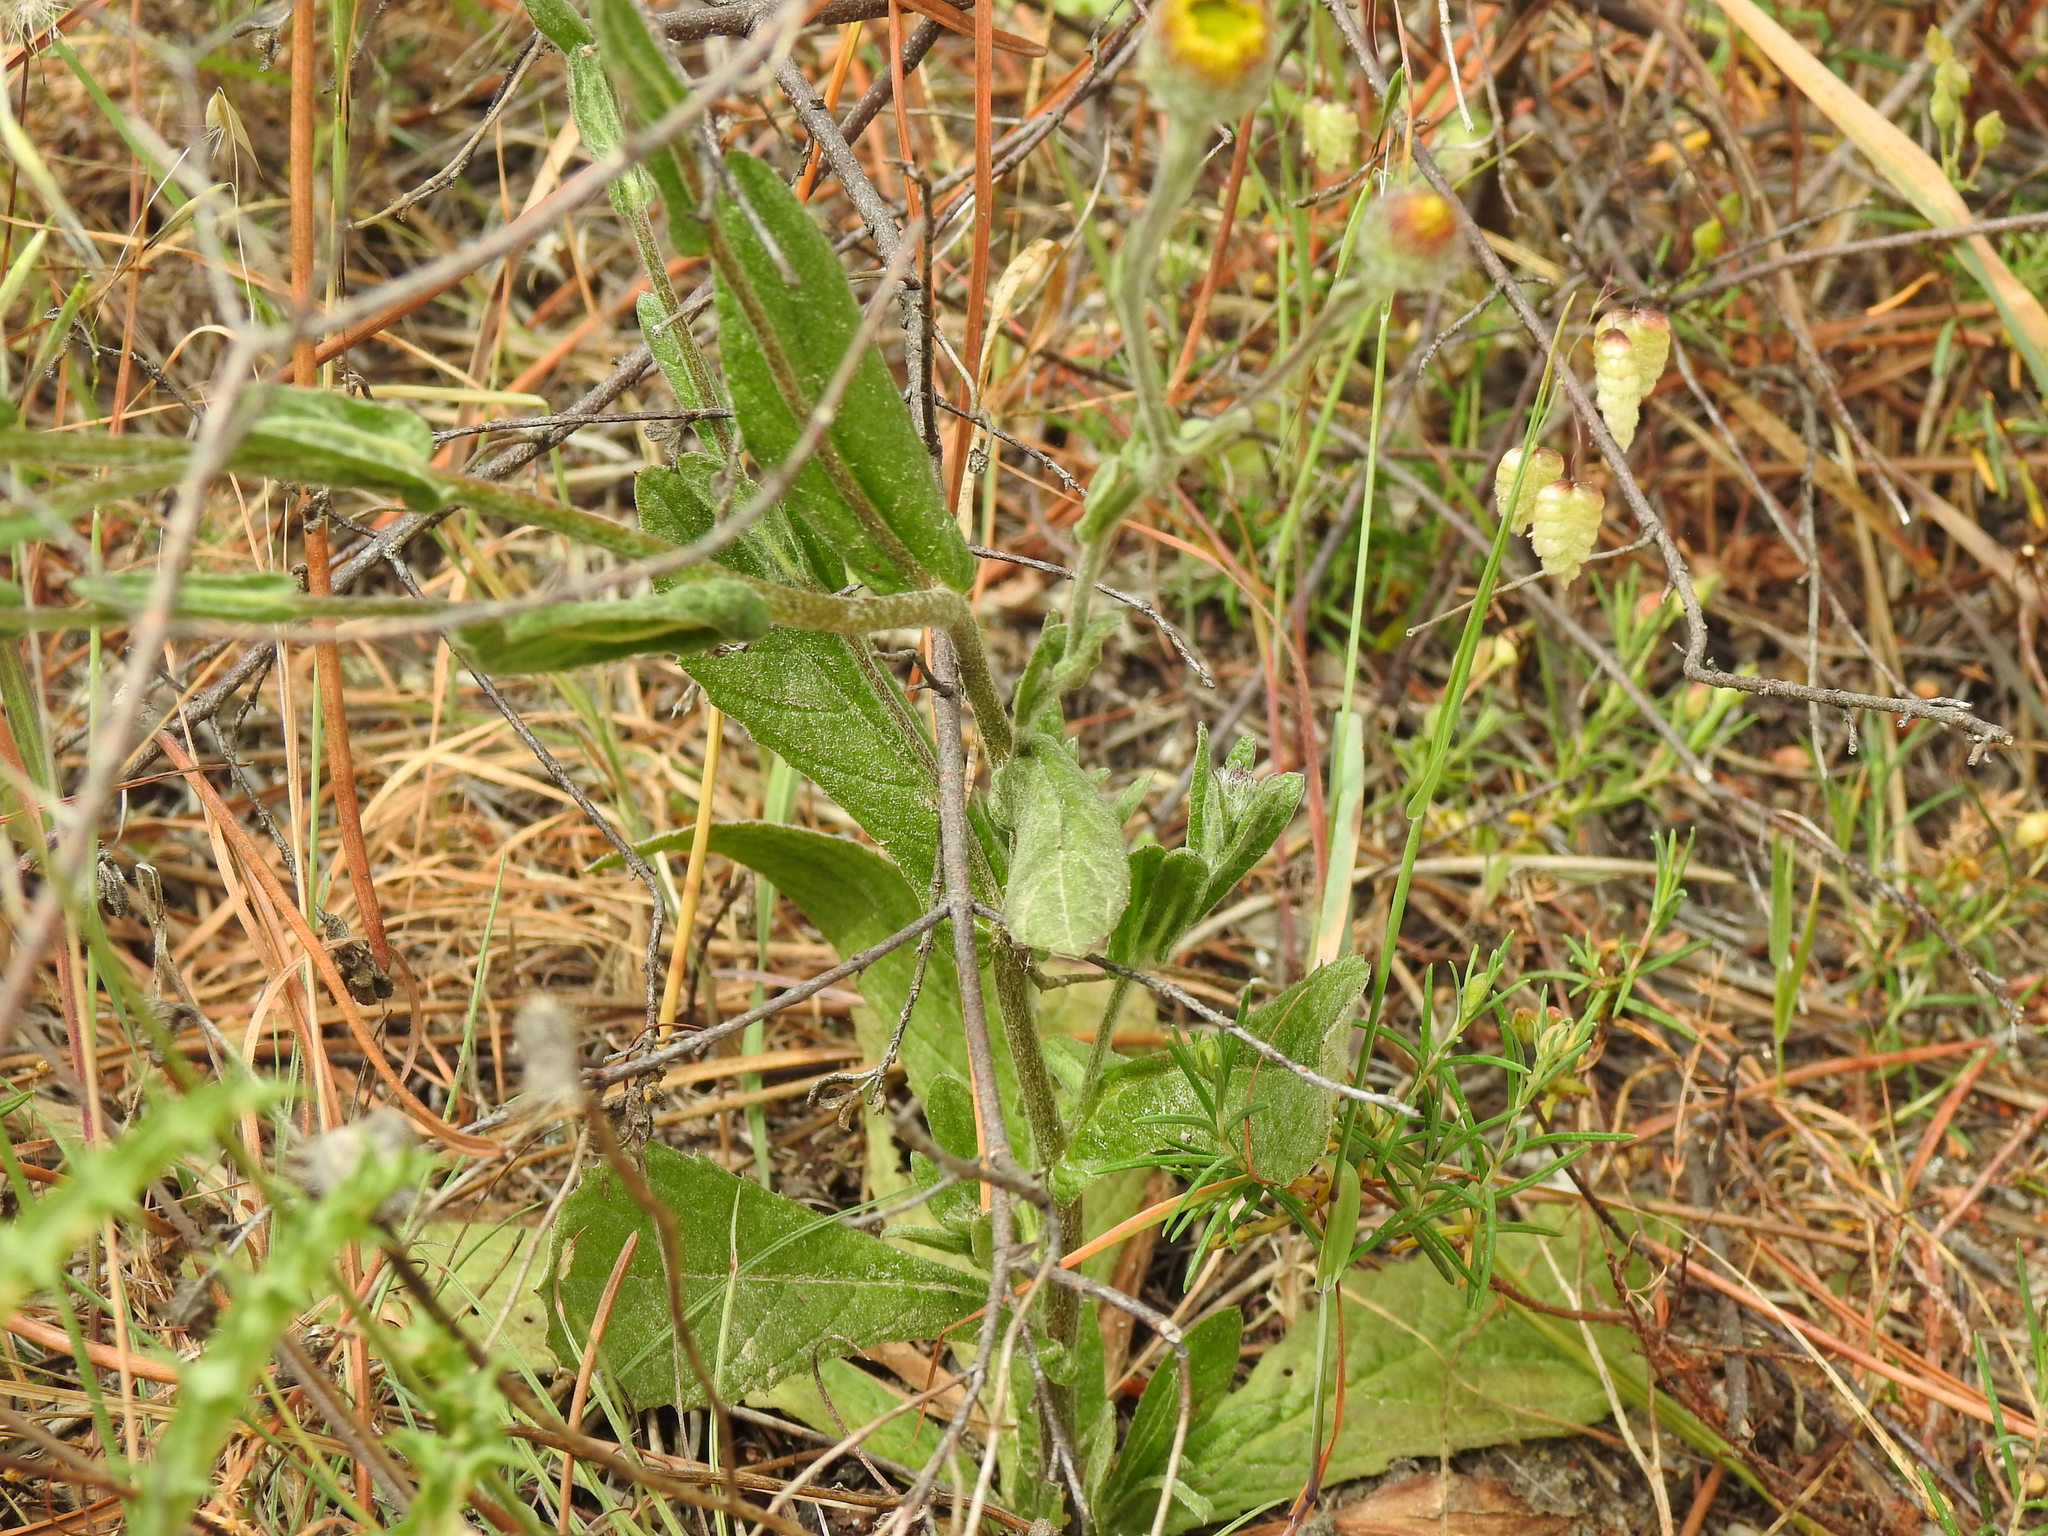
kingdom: Plantae
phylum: Tracheophyta
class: Magnoliopsida
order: Asterales
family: Asteraceae
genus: Pulicaria
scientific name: Pulicaria odora
